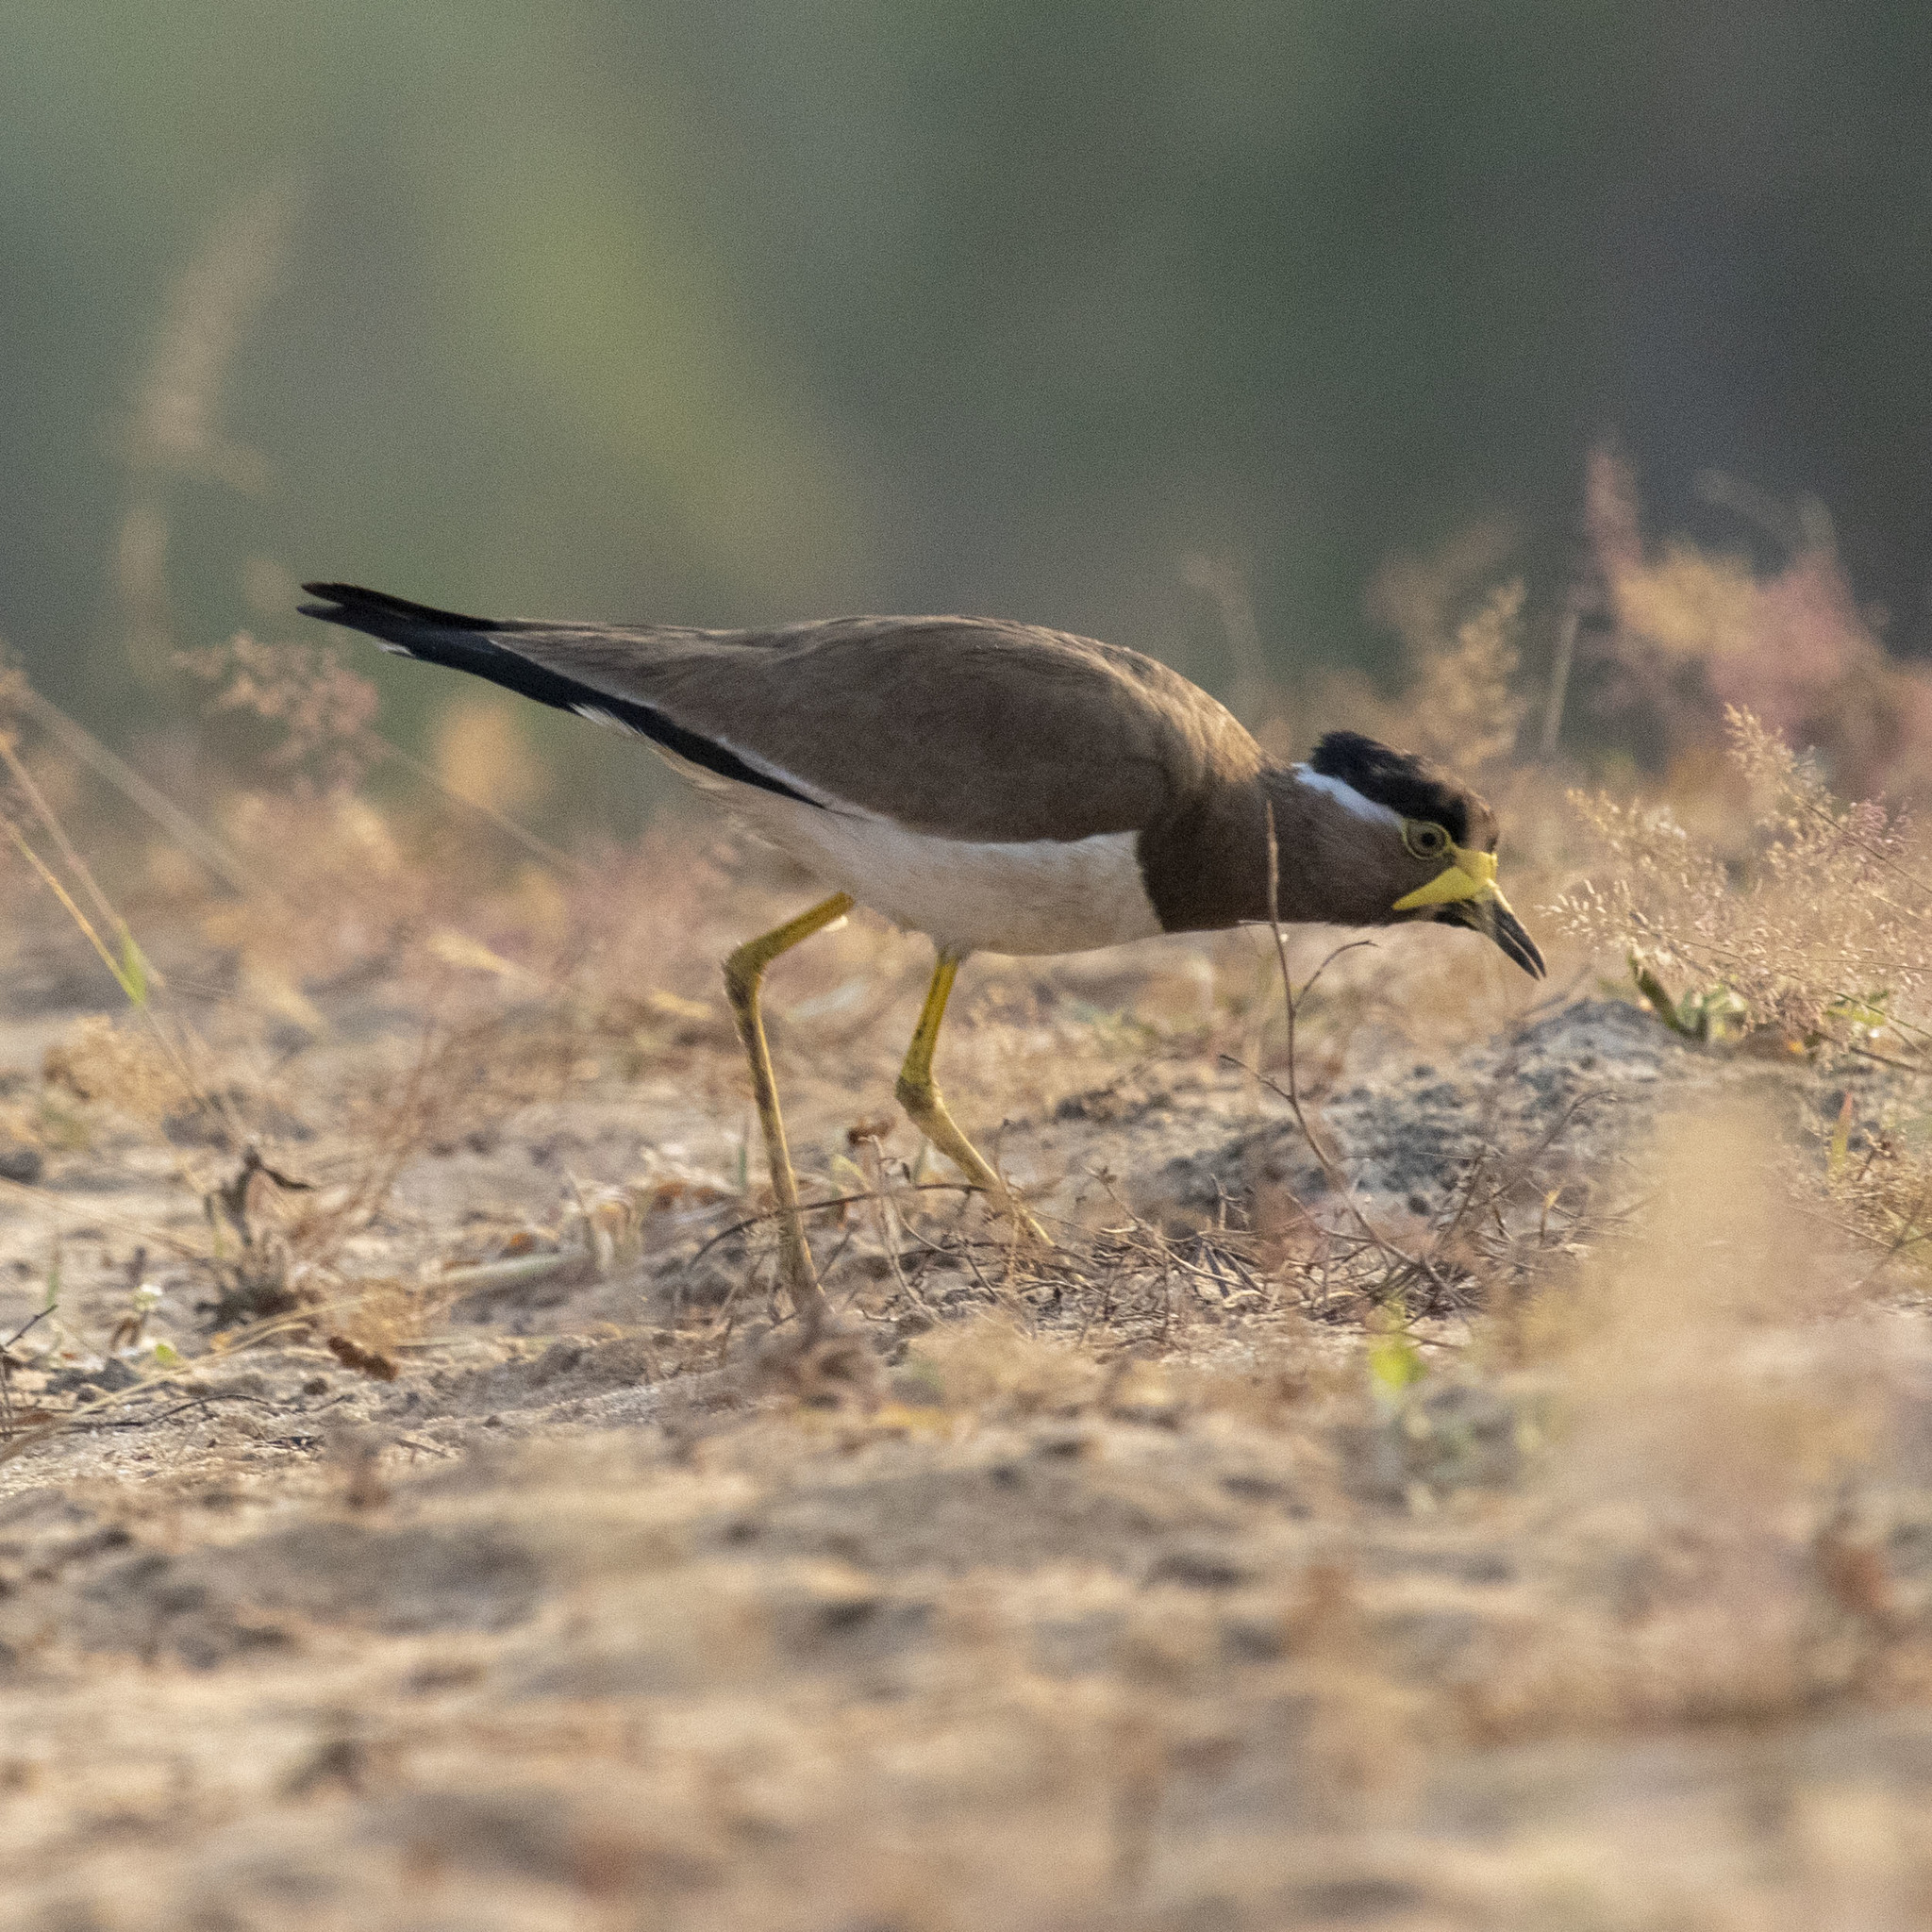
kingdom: Animalia
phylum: Chordata
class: Aves
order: Charadriiformes
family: Charadriidae
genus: Vanellus
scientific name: Vanellus malabaricus
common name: Yellow-wattled lapwing
